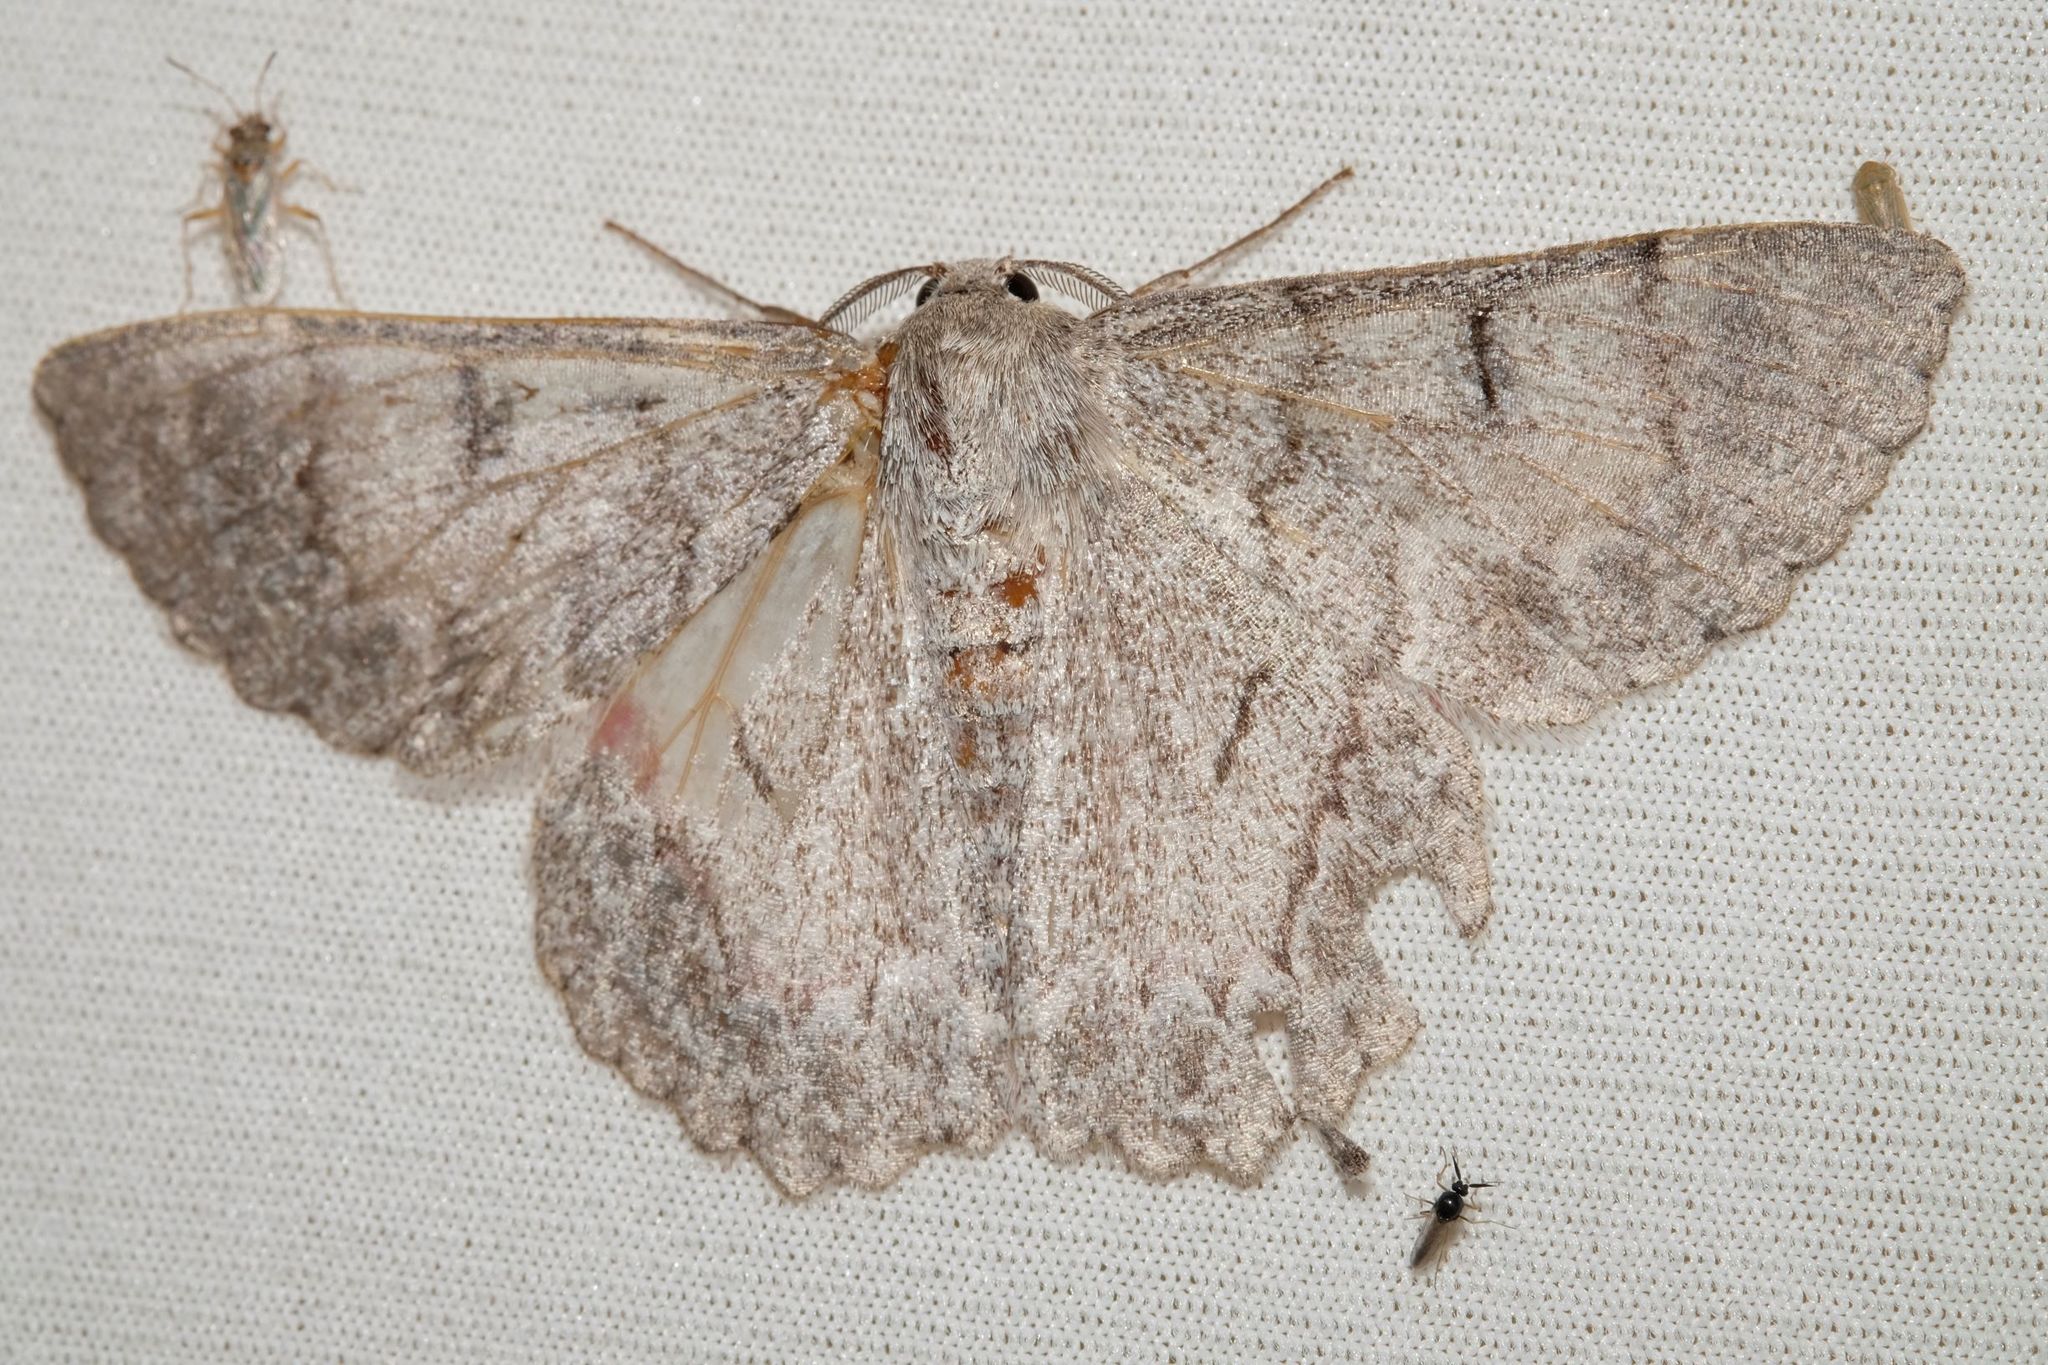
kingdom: Animalia
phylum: Arthropoda
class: Insecta
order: Lepidoptera
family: Geometridae
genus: Crypsiphona
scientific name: Crypsiphona ocultaria
